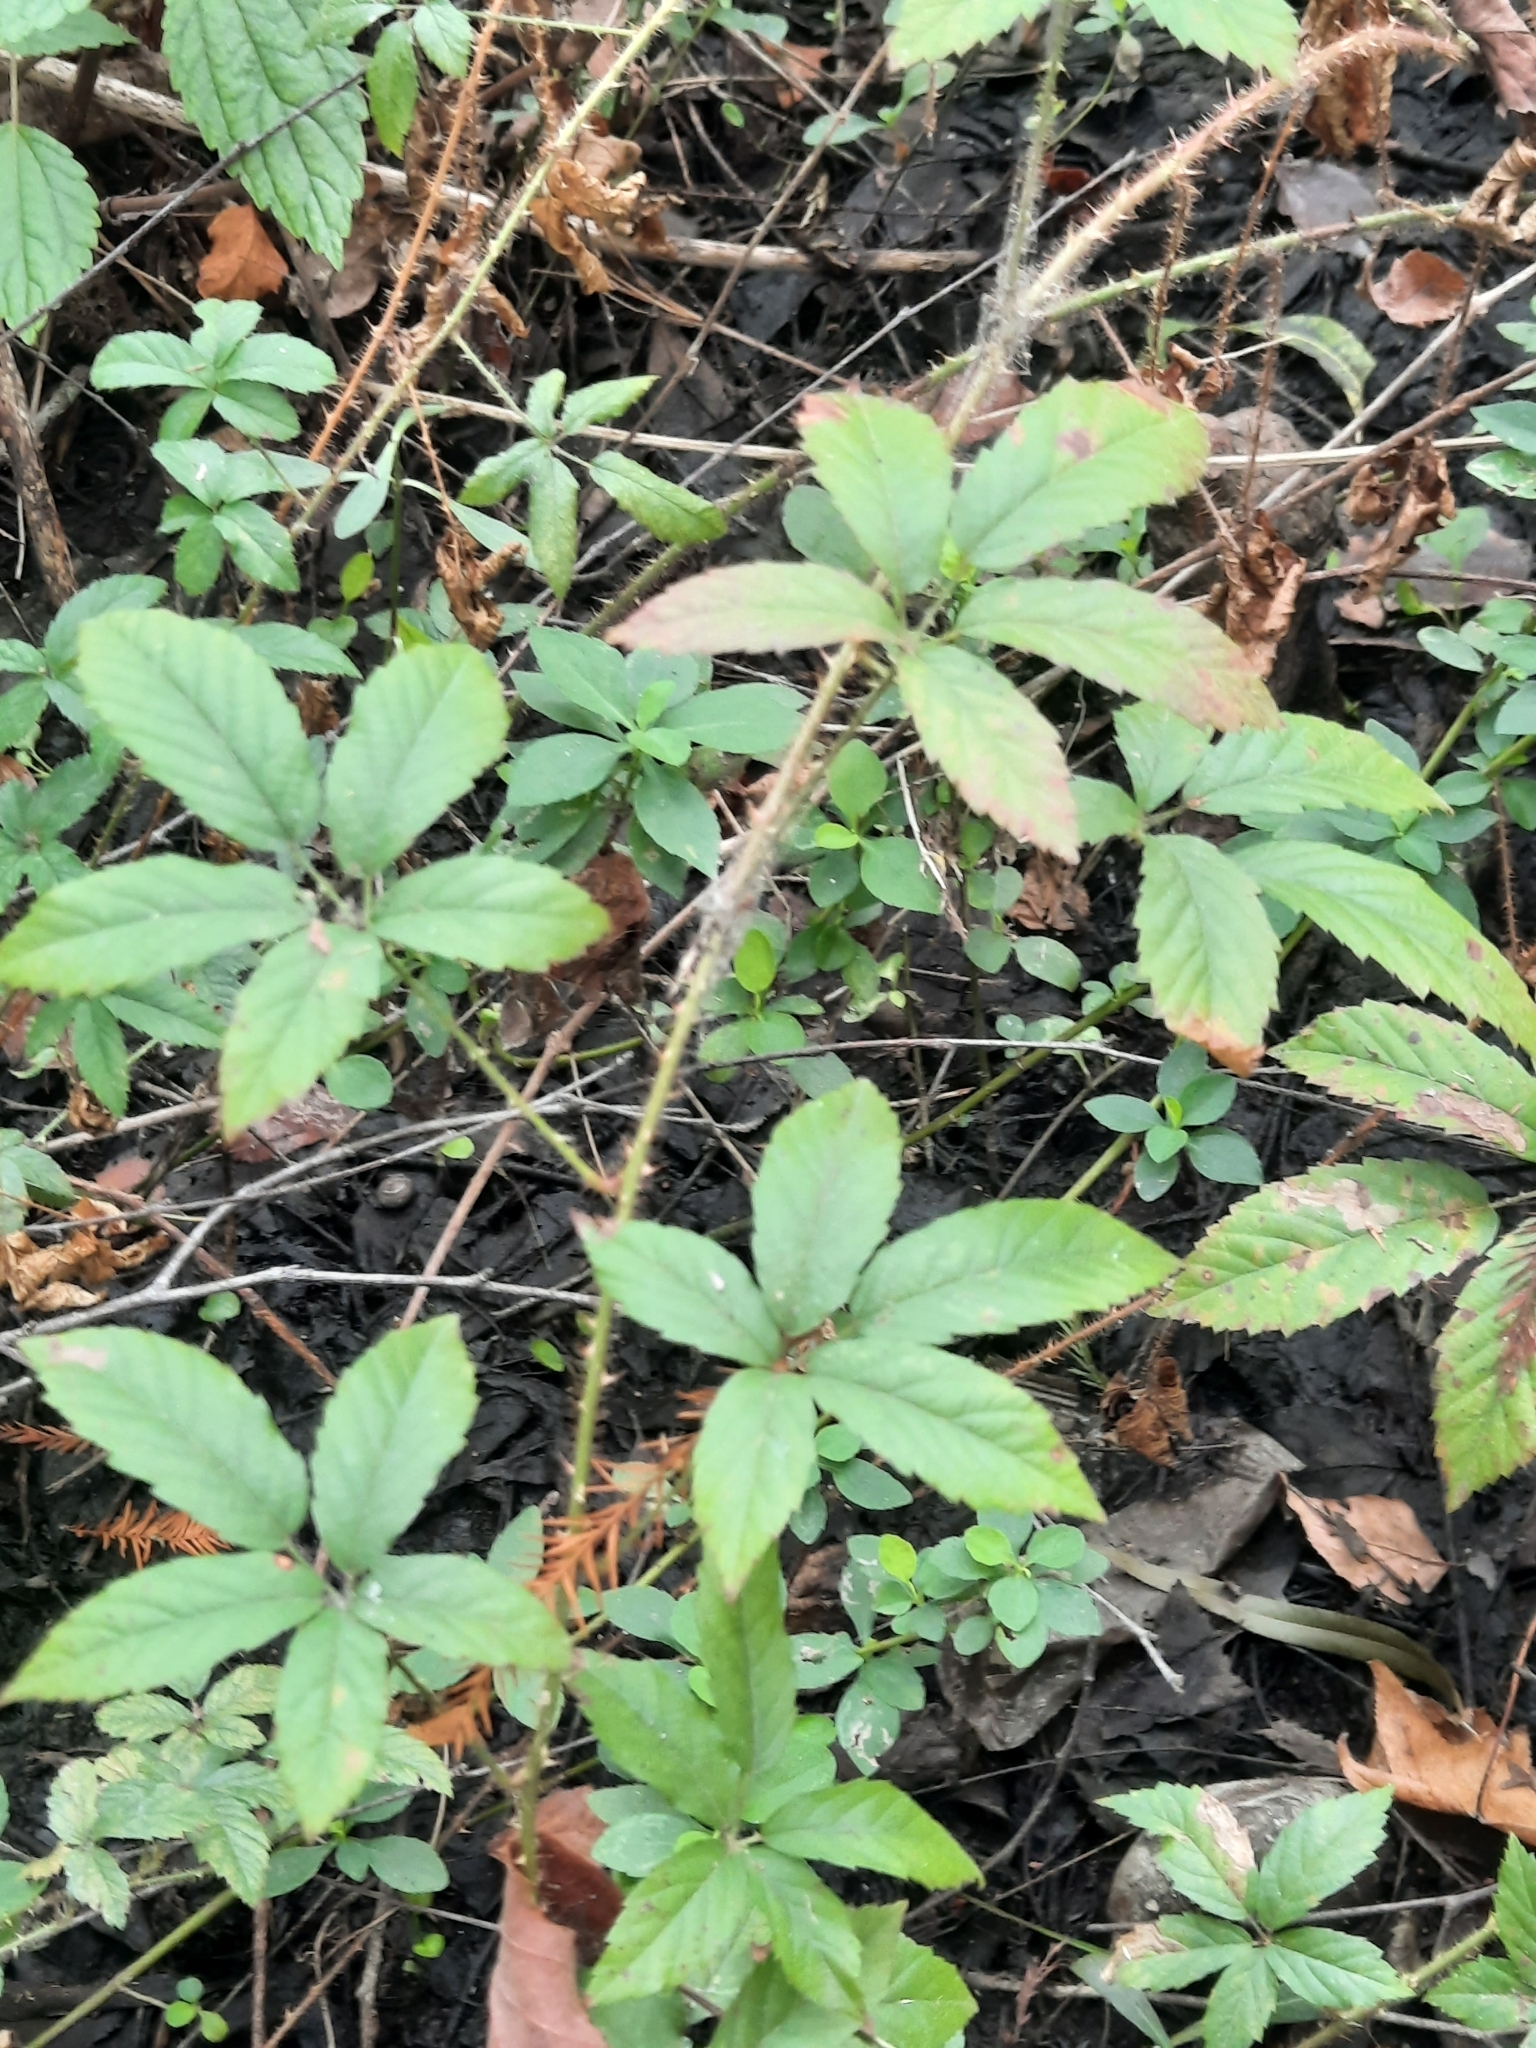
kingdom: Plantae
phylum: Tracheophyta
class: Magnoliopsida
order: Rosales
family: Rosaceae
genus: Rubus
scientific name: Rubus trivialis
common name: Southern dewberry
